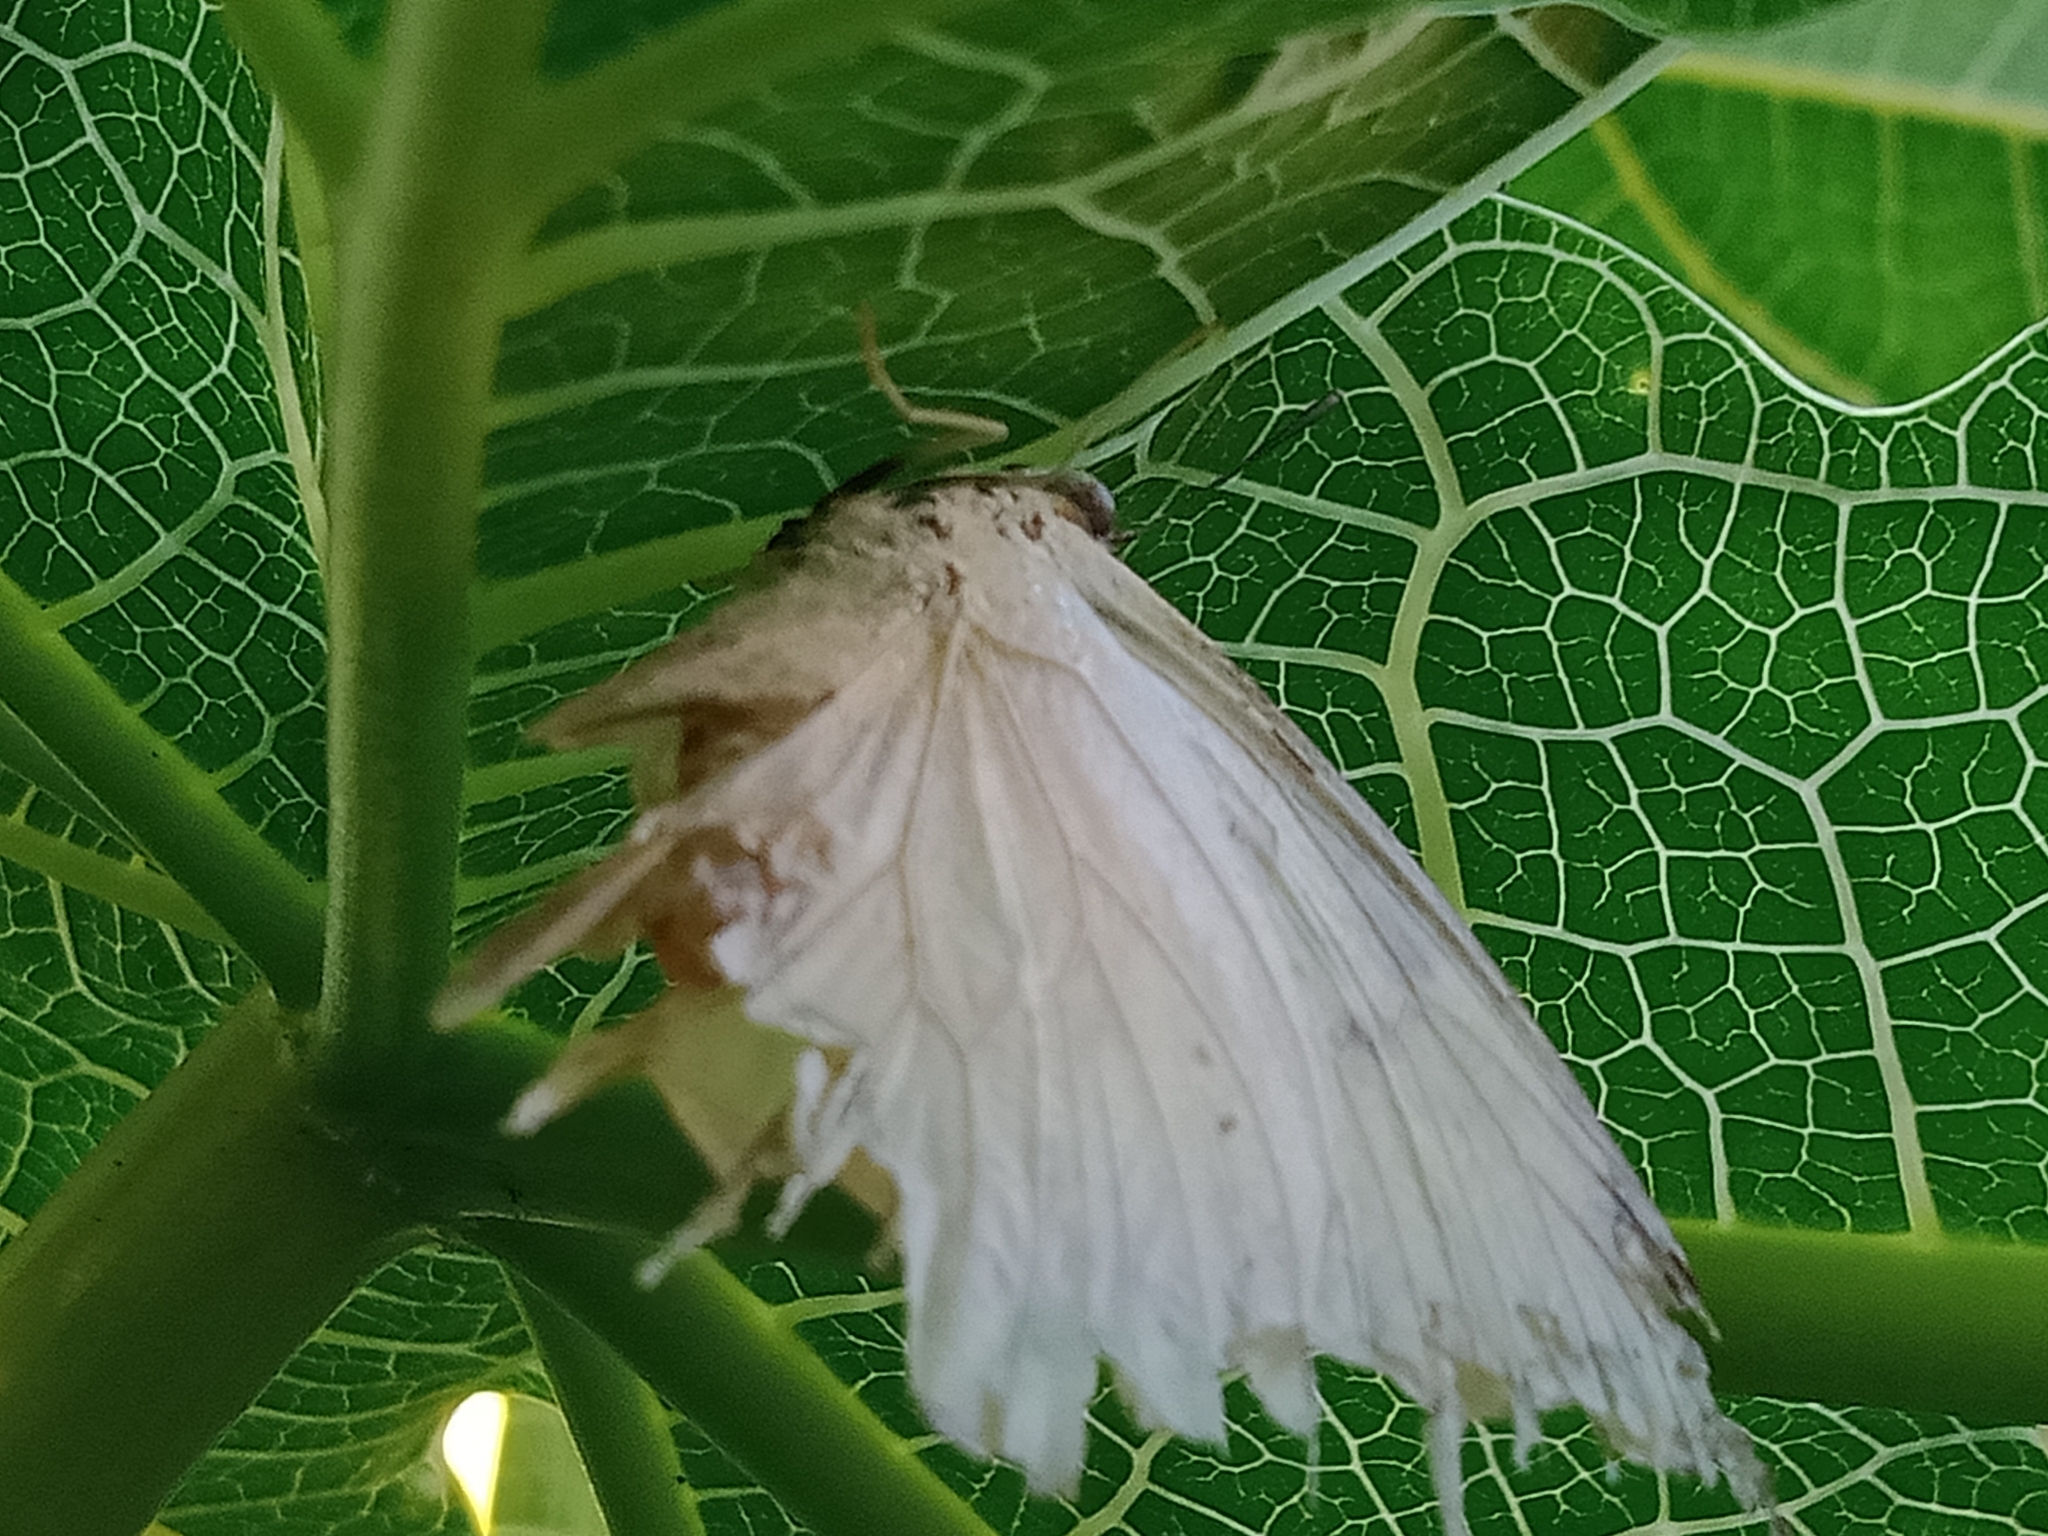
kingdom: Animalia
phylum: Arthropoda
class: Insecta
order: Lepidoptera
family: Pieridae
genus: Pieris
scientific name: Pieris rapae
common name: Small white
